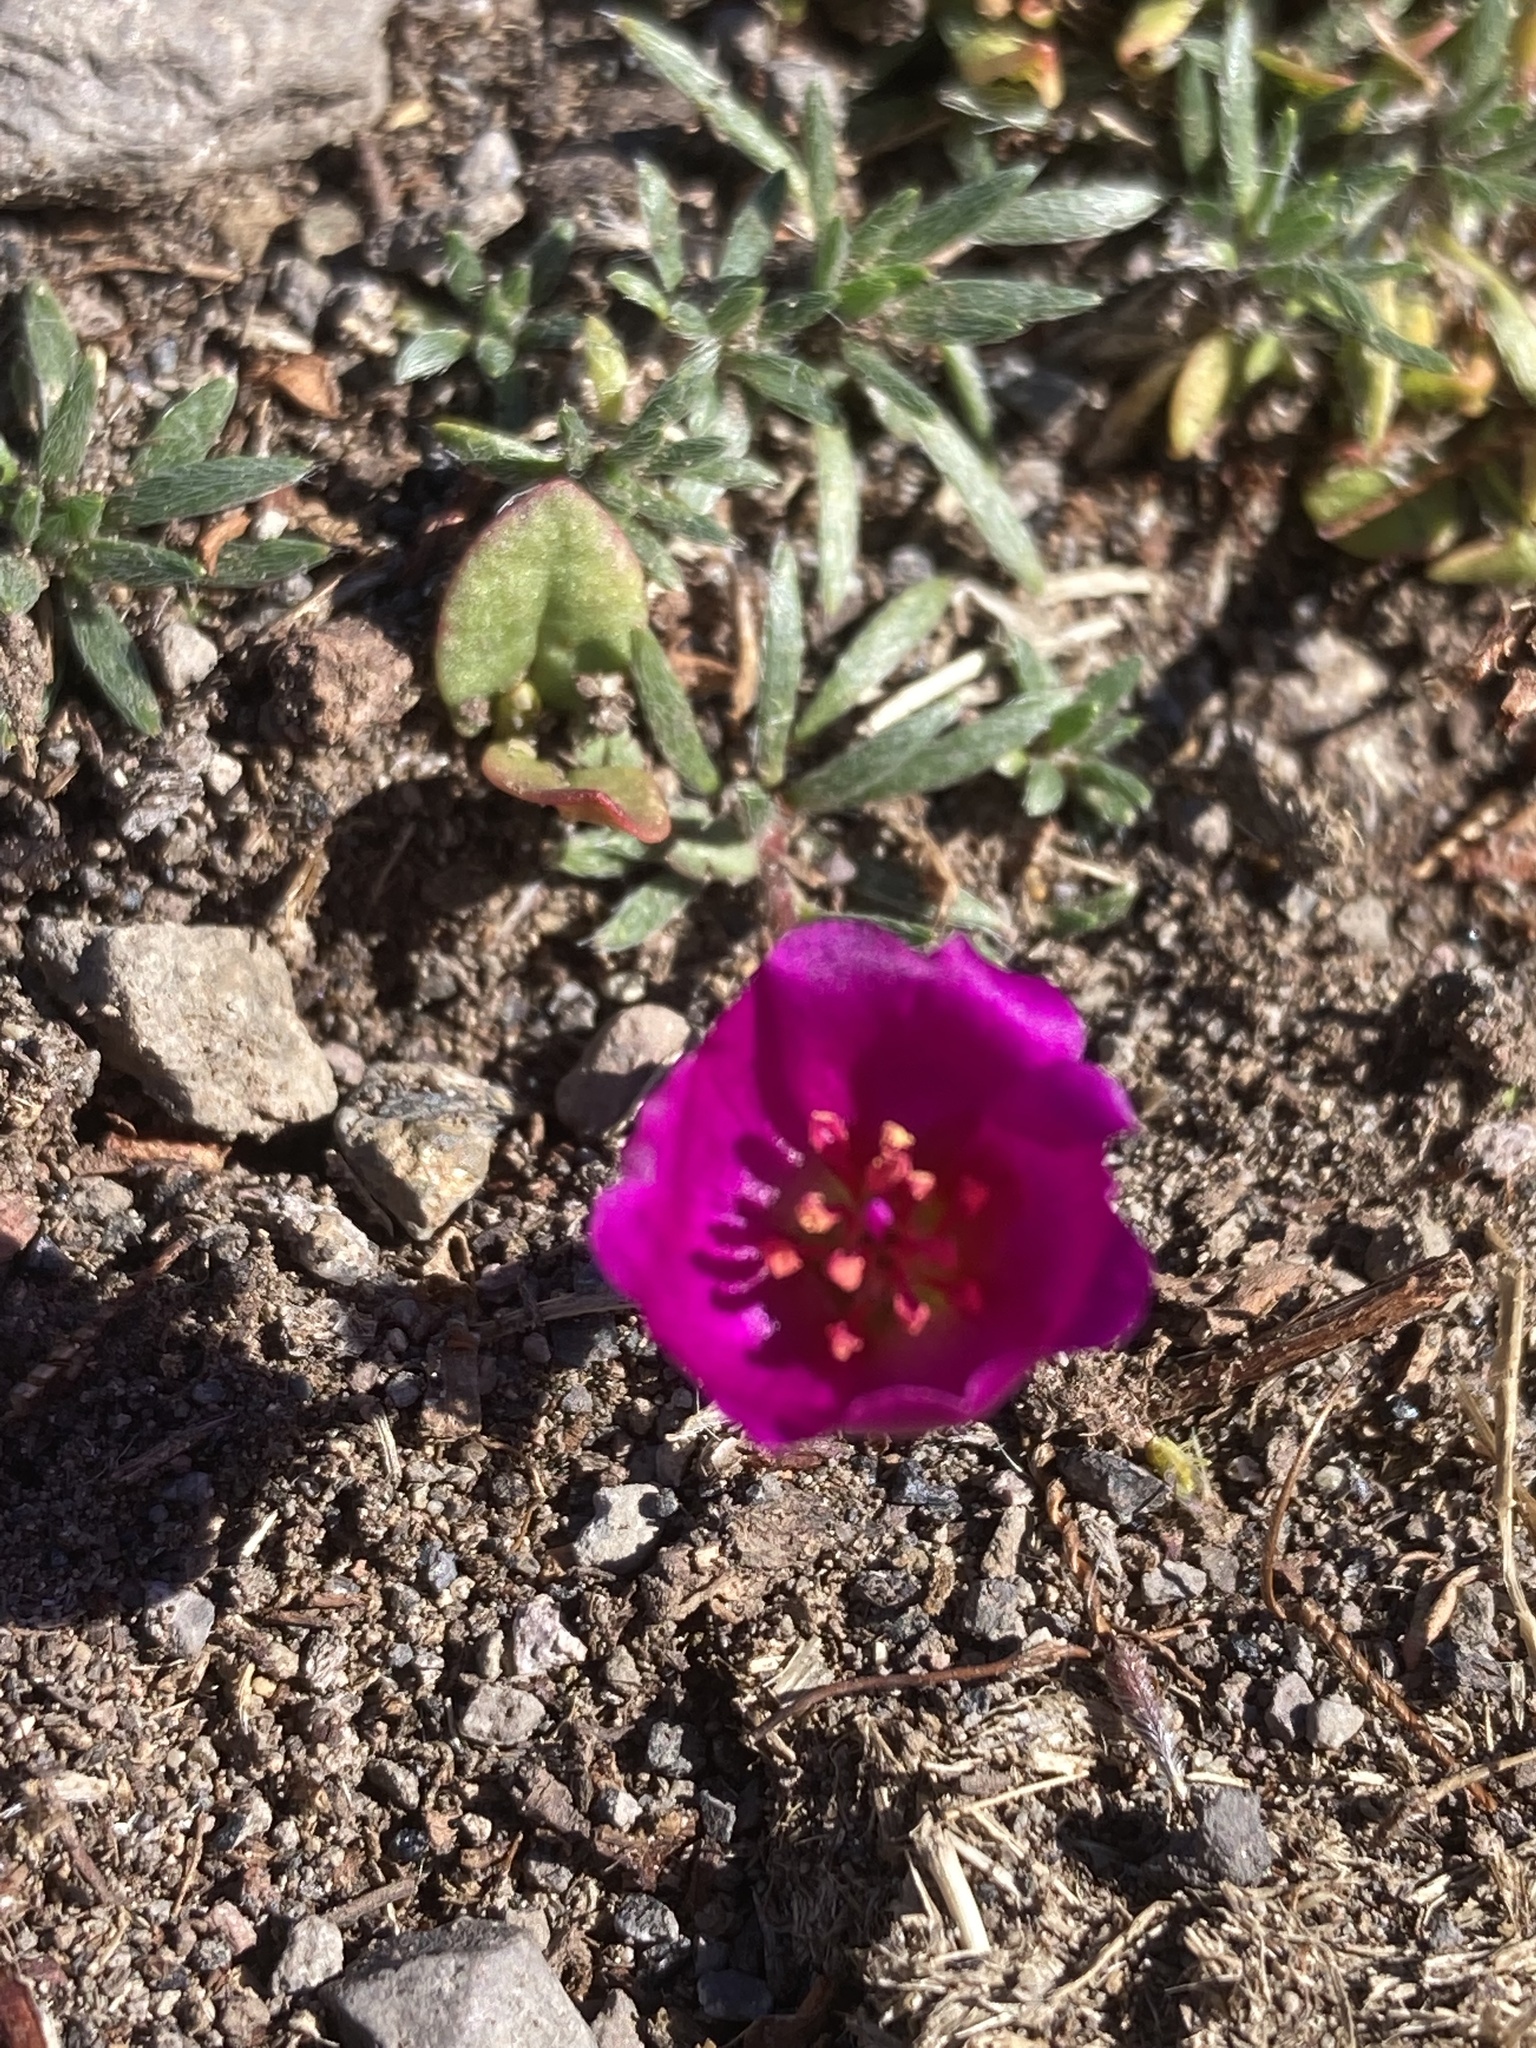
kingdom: Plantae
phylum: Tracheophyta
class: Magnoliopsida
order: Caryophyllales
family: Montiaceae
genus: Montiopsis
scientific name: Montiopsis umbellata
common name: Rock-purslane
